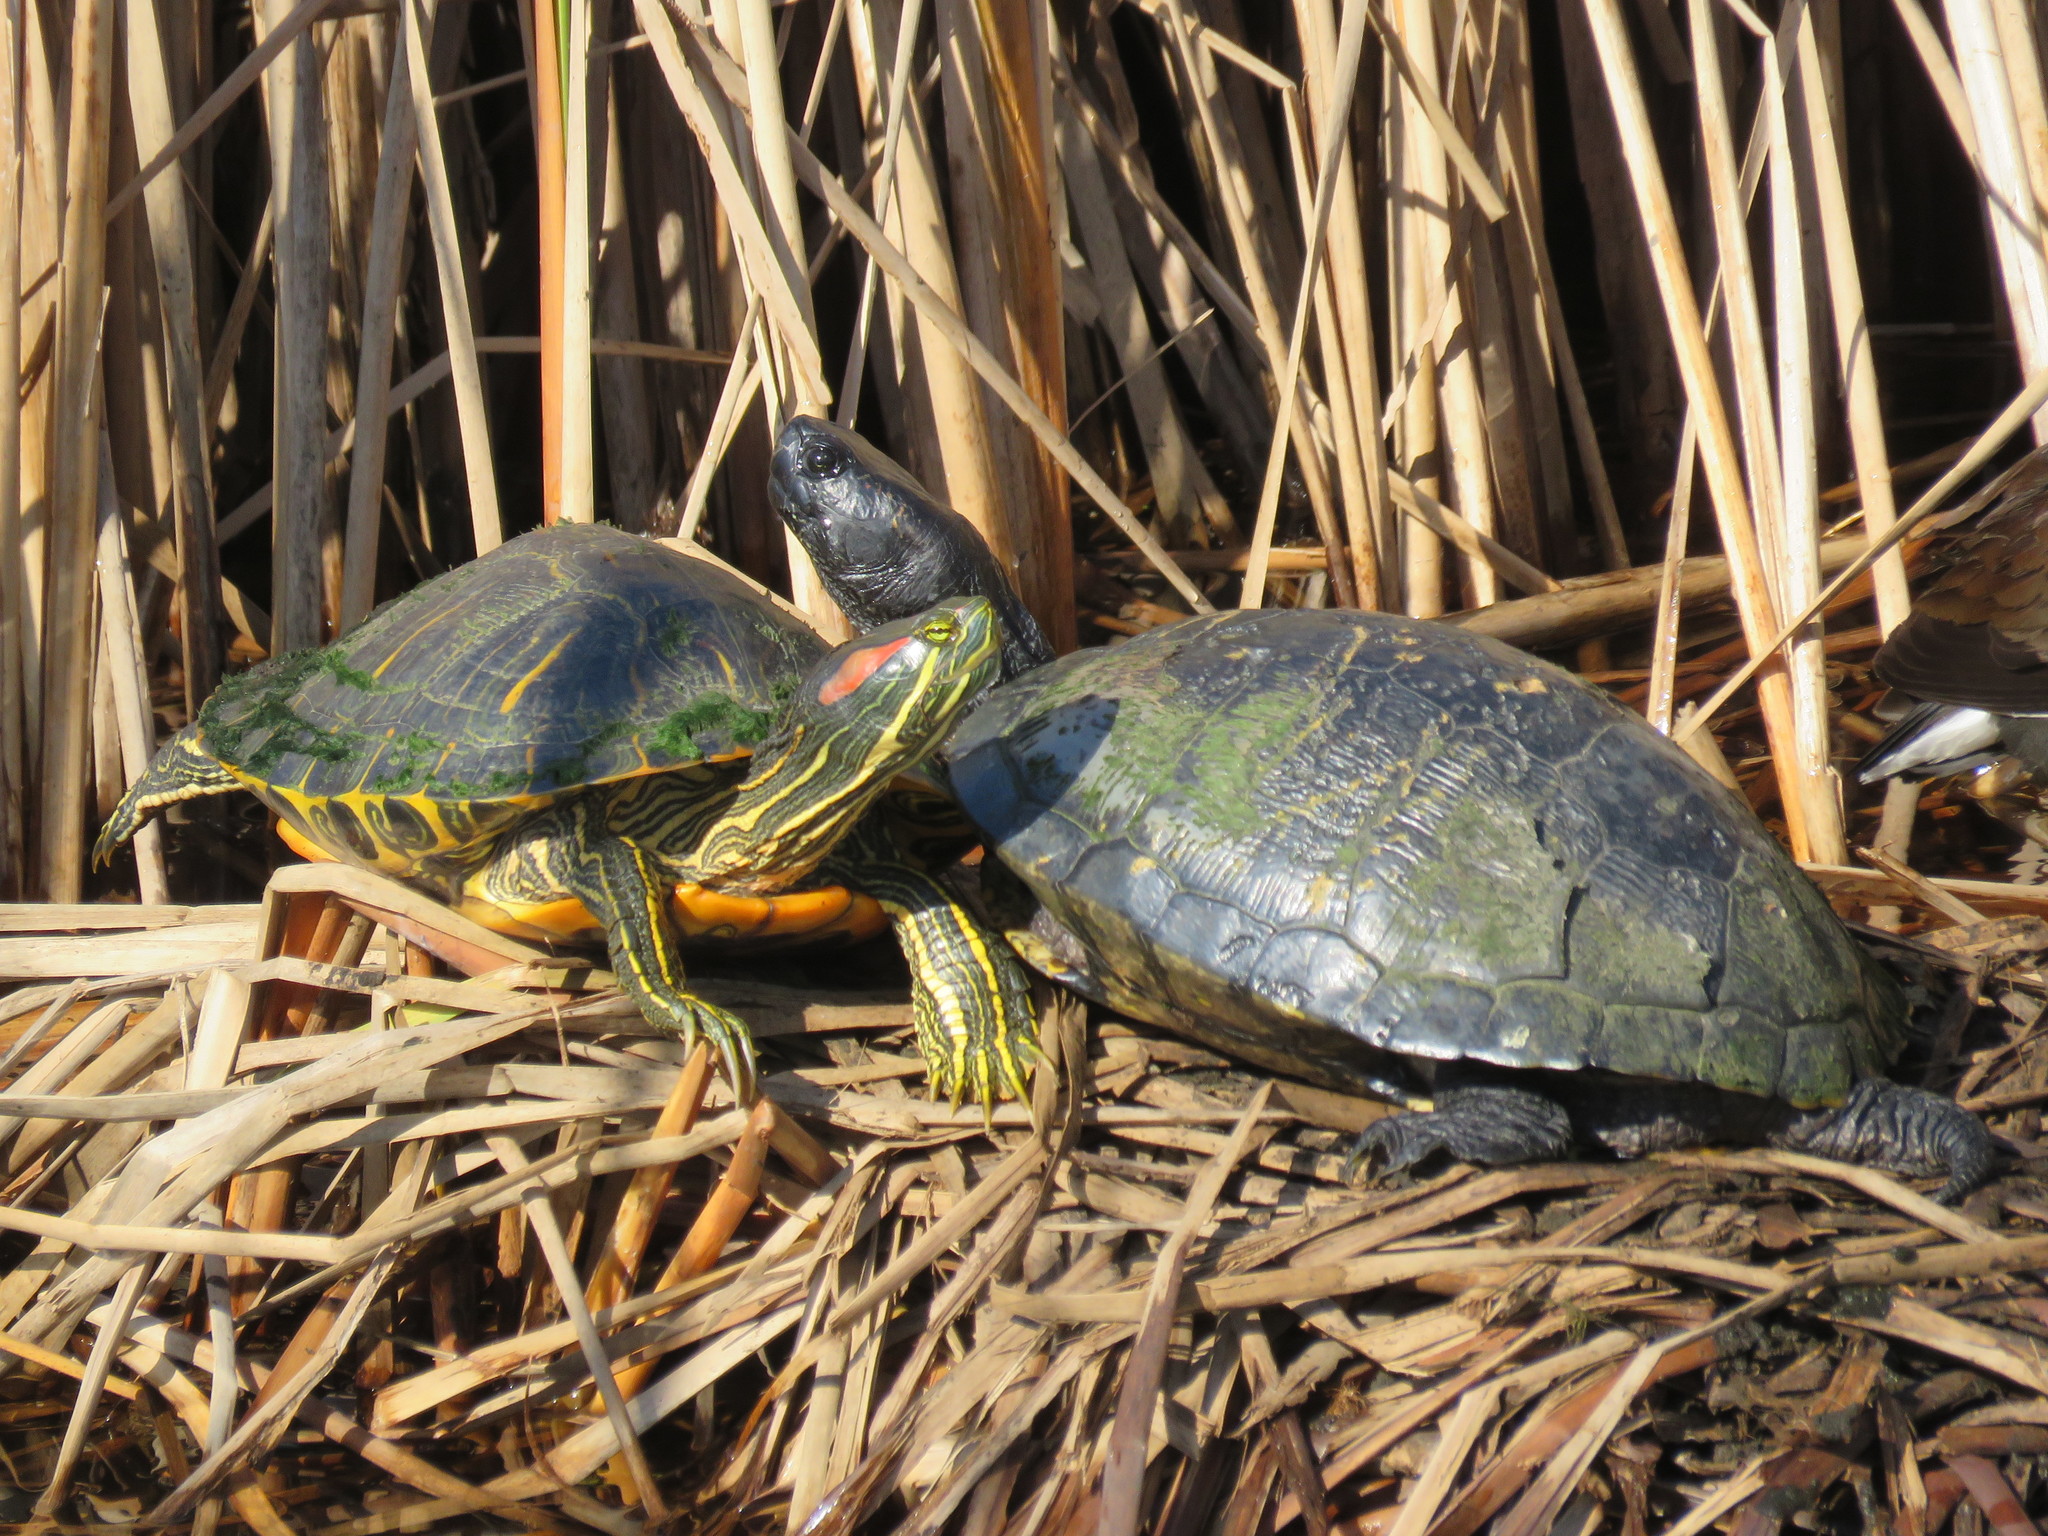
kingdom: Animalia
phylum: Chordata
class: Testudines
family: Emydidae
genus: Trachemys
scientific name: Trachemys scripta
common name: Slider
